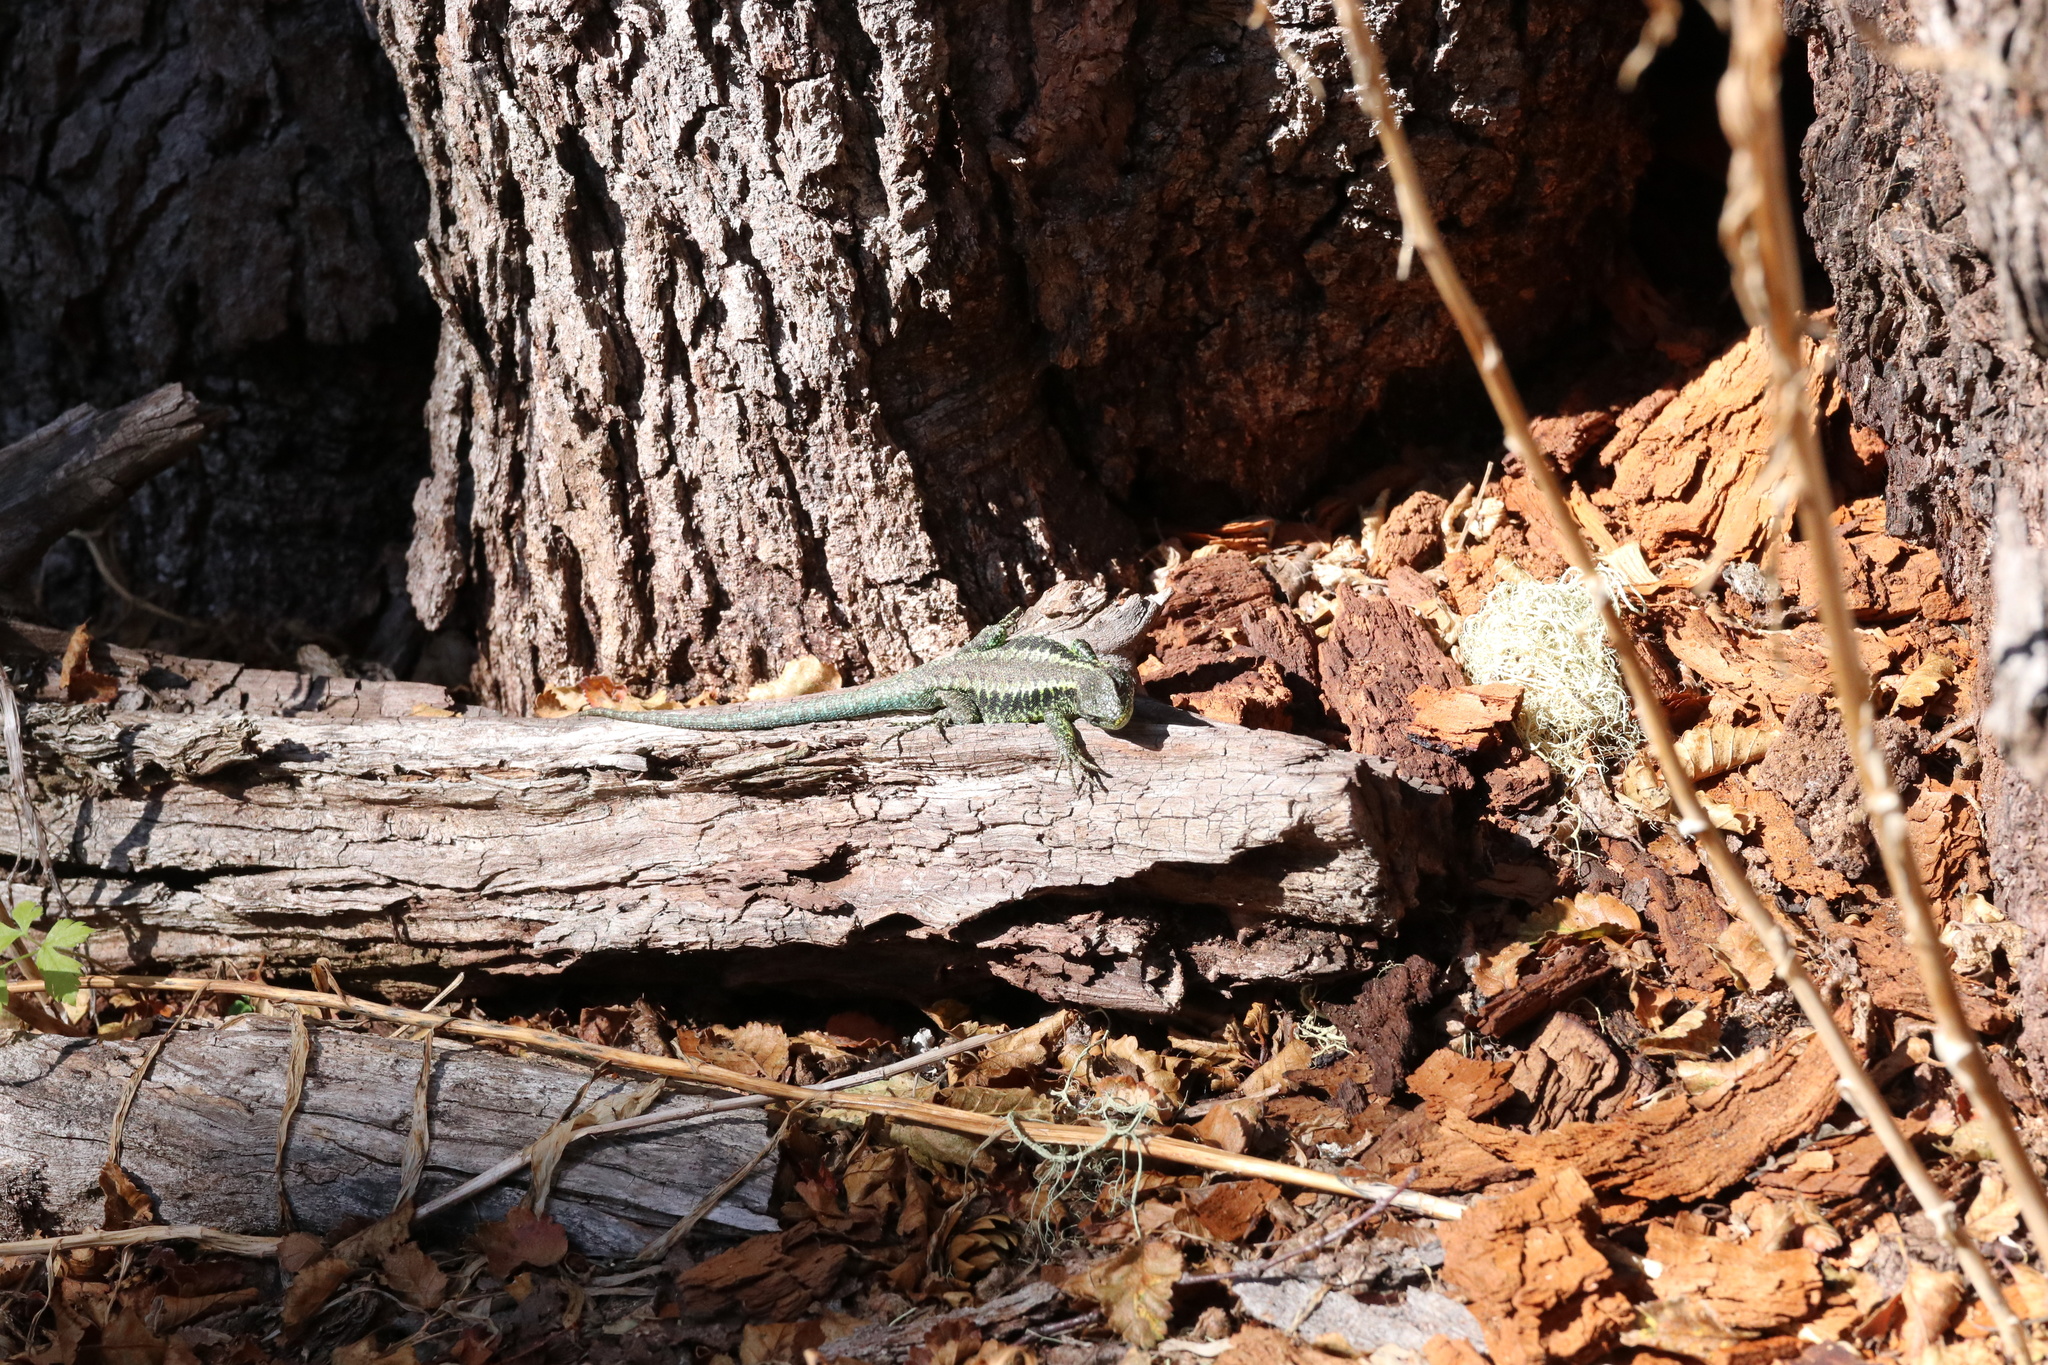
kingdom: Animalia
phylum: Chordata
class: Squamata
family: Liolaemidae
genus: Liolaemus
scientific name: Liolaemus pictus
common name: Painted tree iguana
